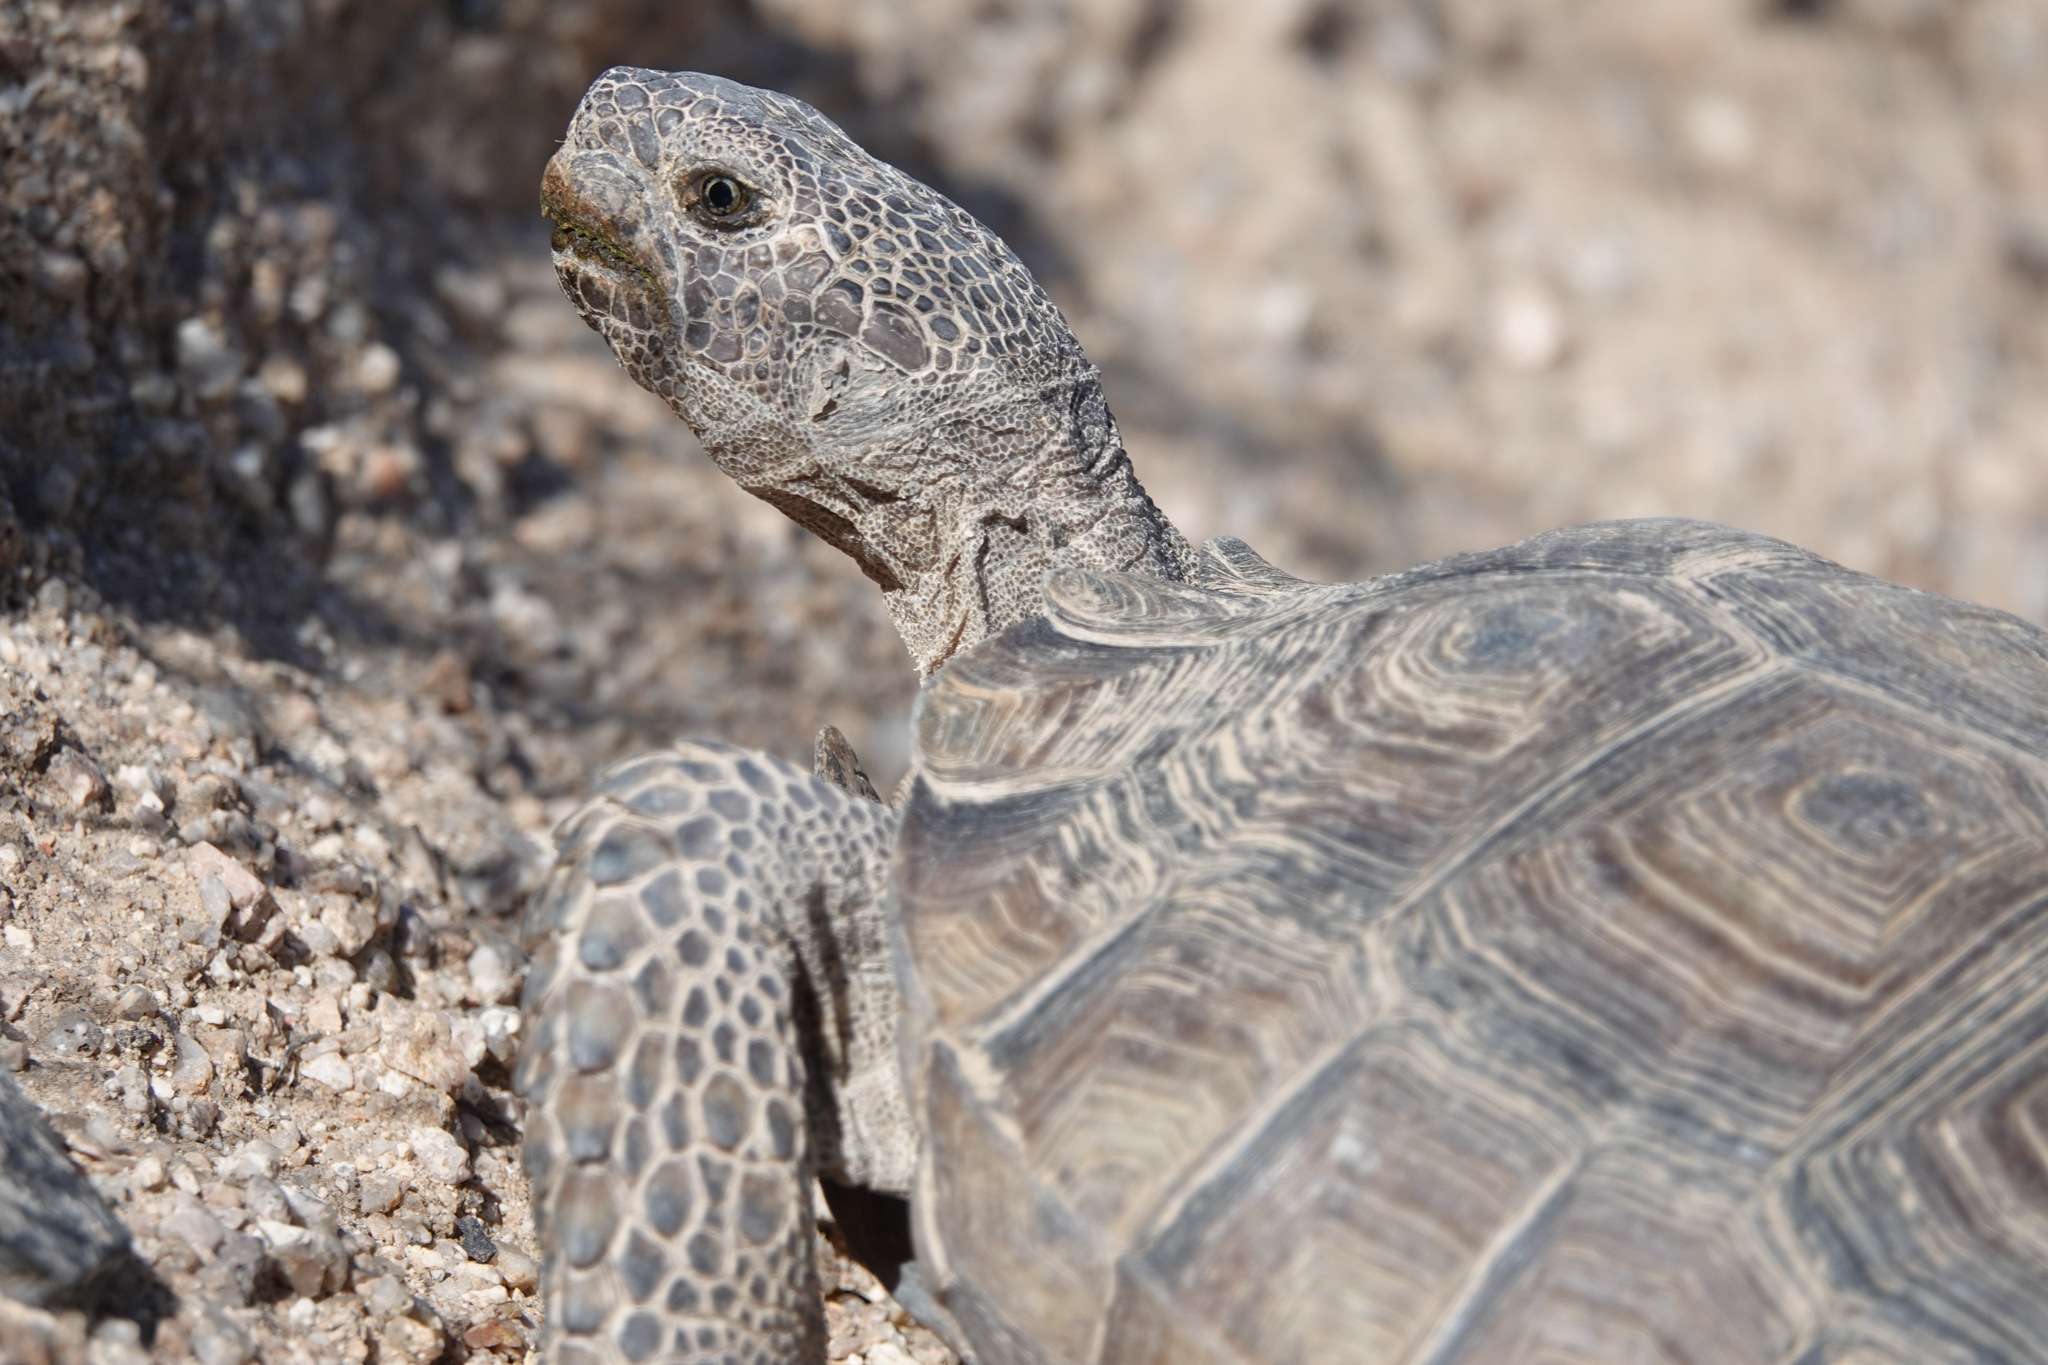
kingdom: Animalia
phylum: Chordata
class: Testudines
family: Testudinidae
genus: Gopherus
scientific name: Gopherus agassizii
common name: Mojave desert tortoise
